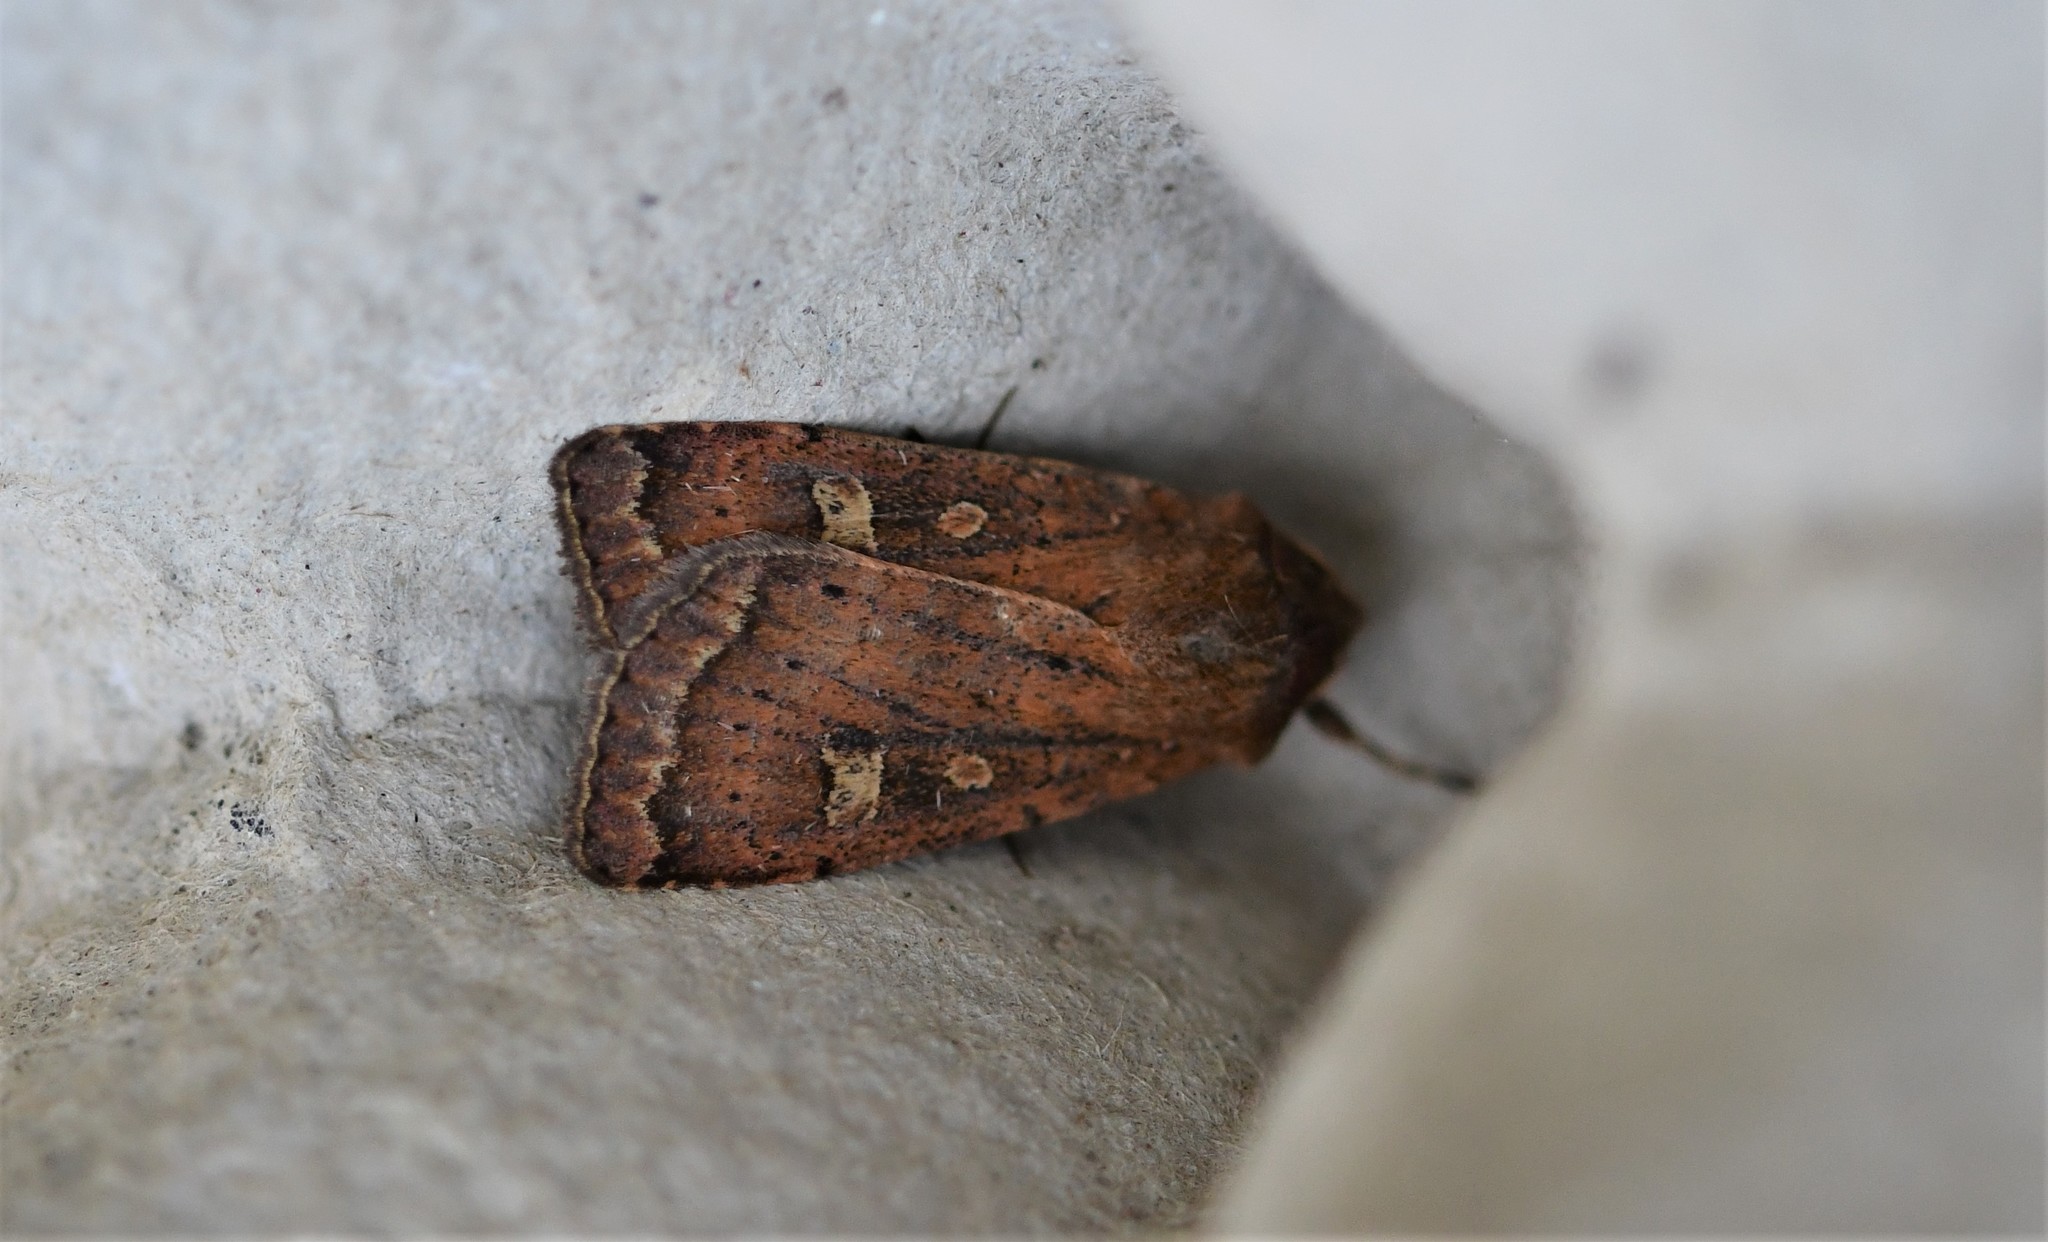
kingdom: Animalia
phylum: Arthropoda
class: Insecta
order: Lepidoptera
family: Noctuidae
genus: Xestia
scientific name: Xestia xanthographa
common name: Square-spot rustic
